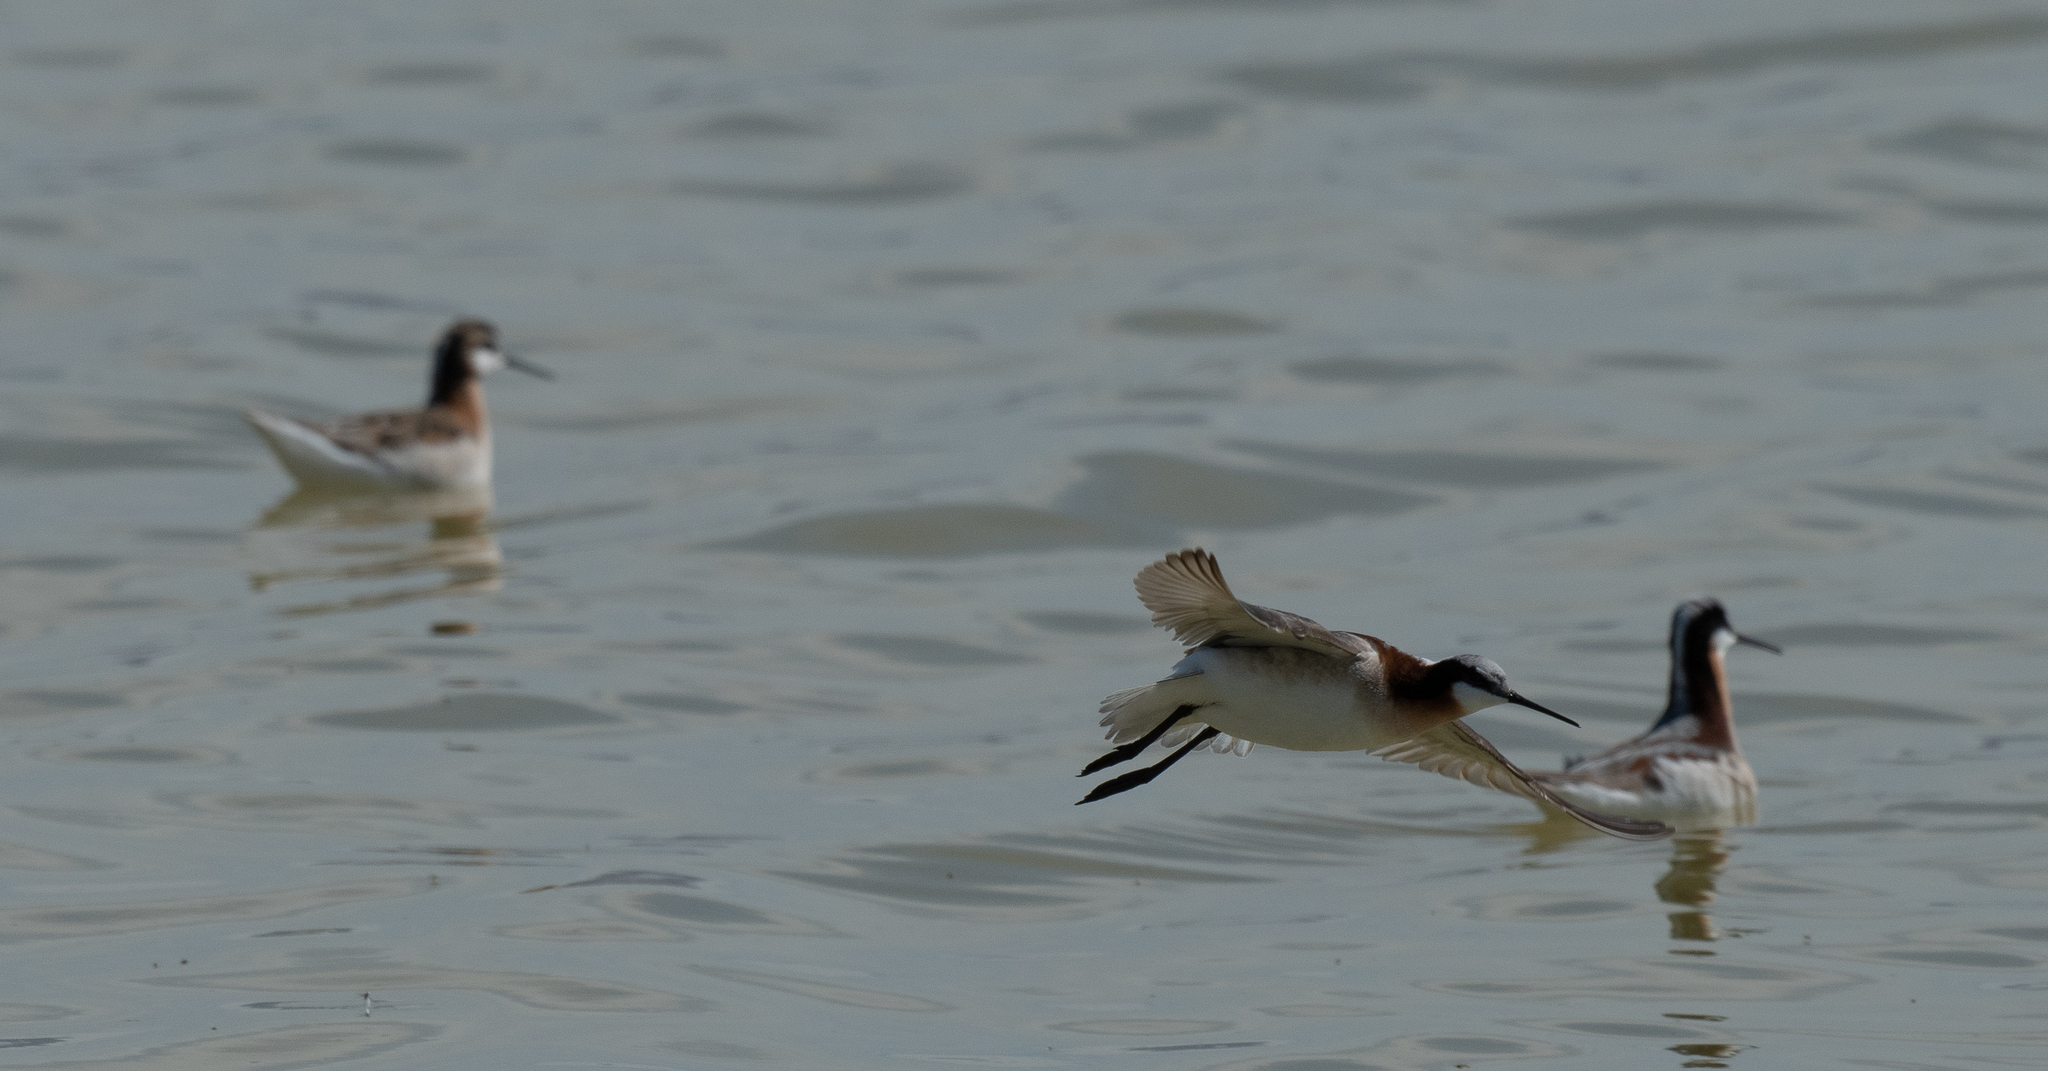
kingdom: Animalia
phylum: Chordata
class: Aves
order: Charadriiformes
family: Scolopacidae
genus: Phalaropus
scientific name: Phalaropus tricolor
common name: Wilson's phalarope
